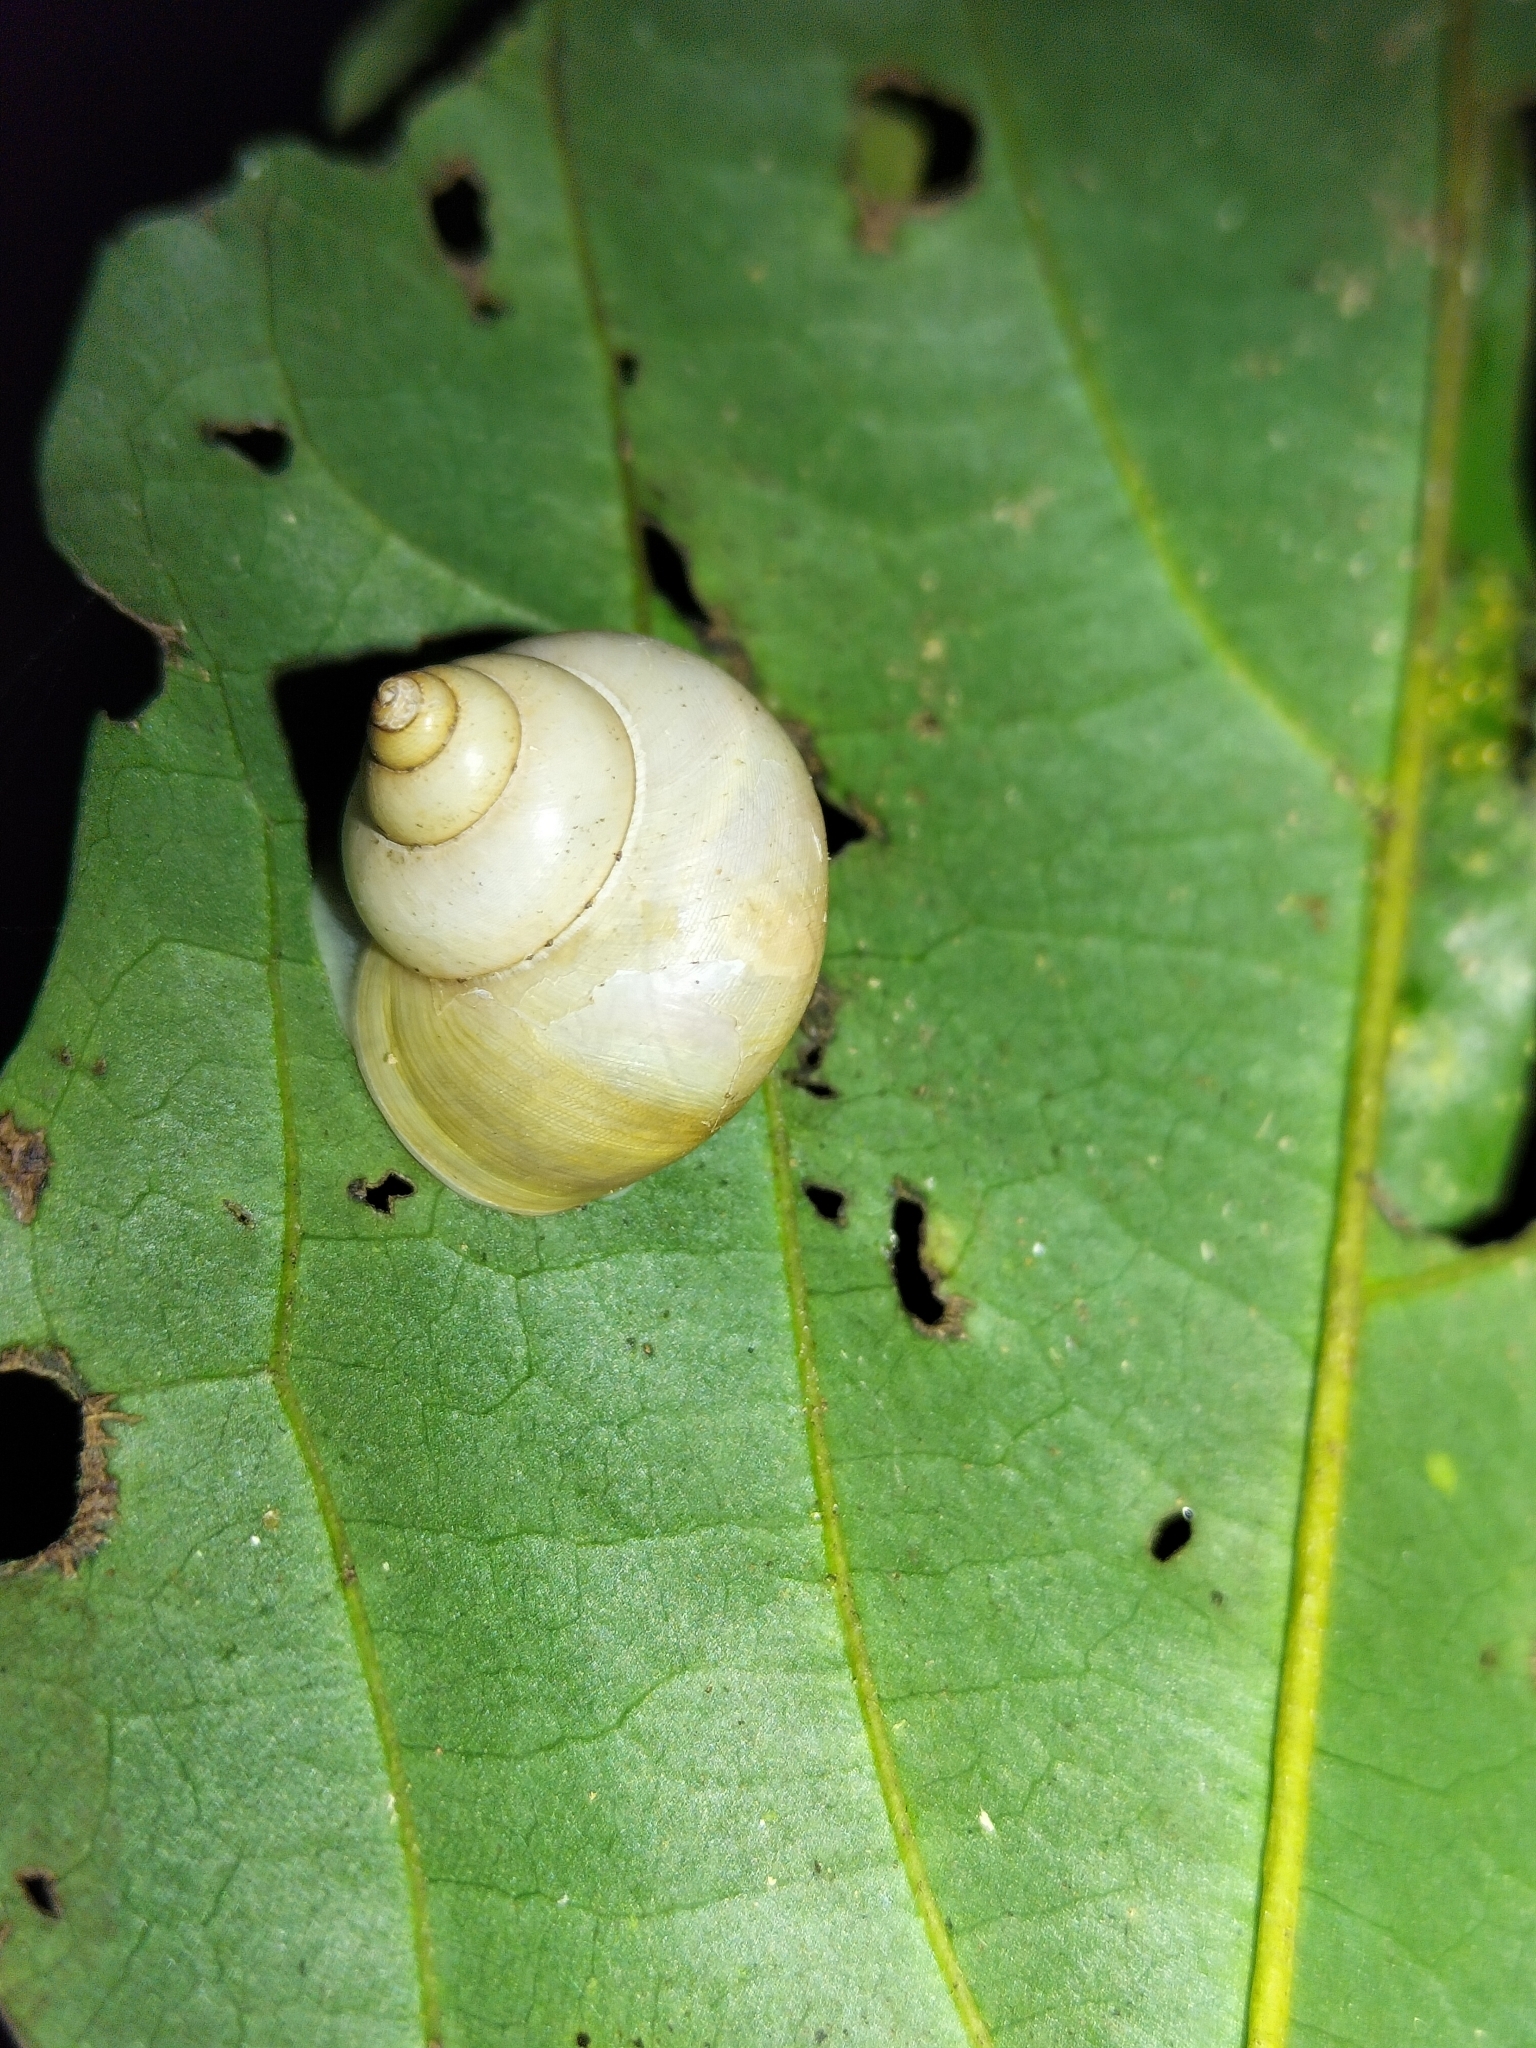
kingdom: Animalia
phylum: Mollusca
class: Gastropoda
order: Architaenioglossa
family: Cyclophoridae
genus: Leptopoma
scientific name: Leptopoma perlucidum
